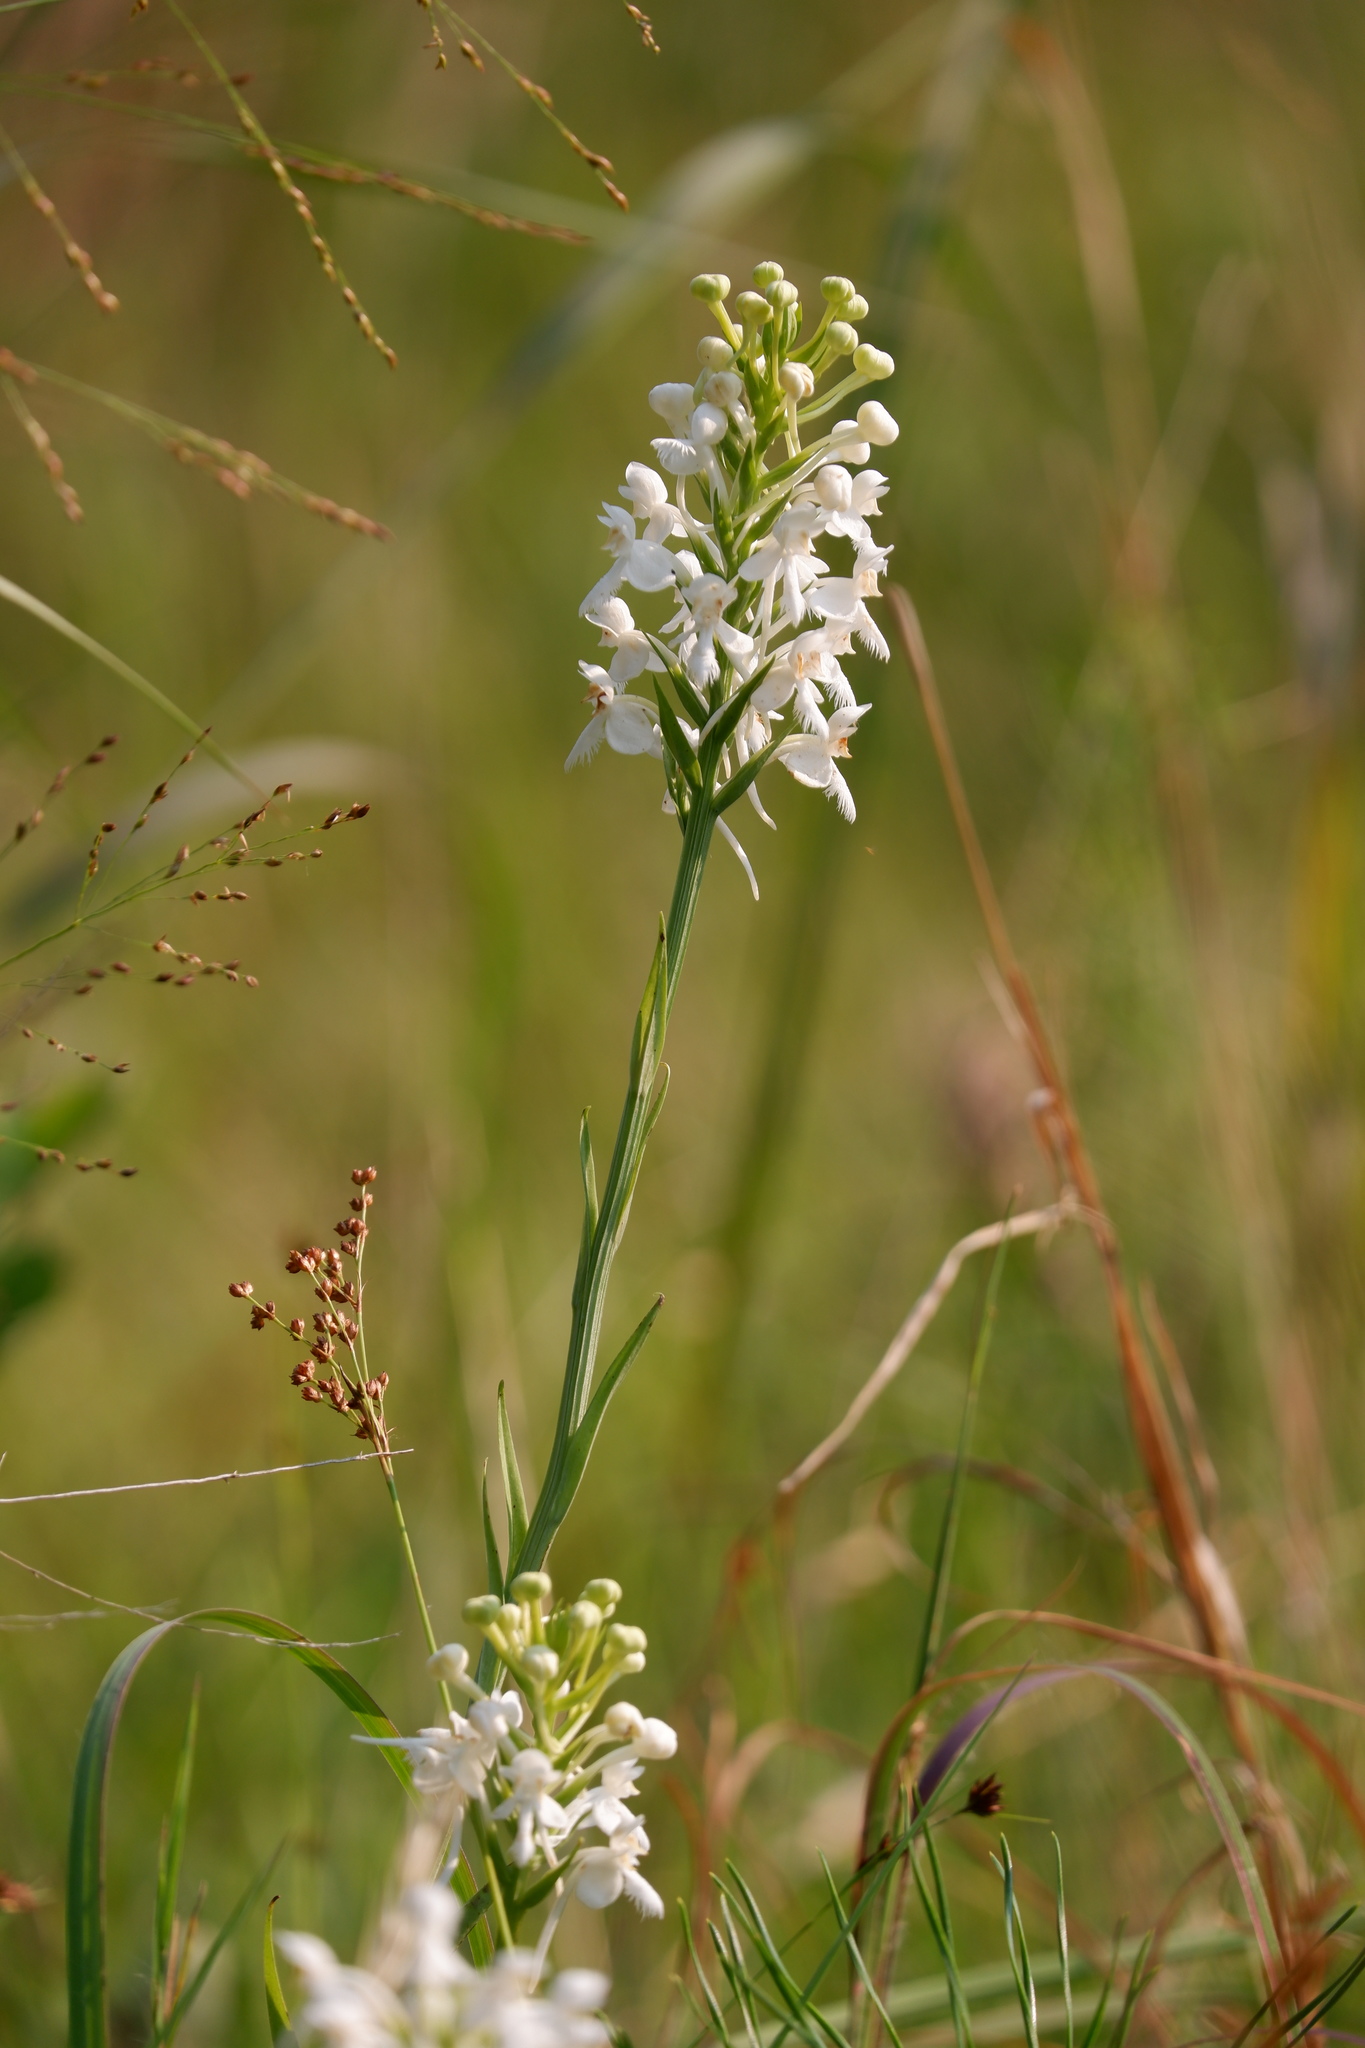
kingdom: Plantae
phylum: Tracheophyta
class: Liliopsida
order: Asparagales
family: Orchidaceae
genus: Platanthera
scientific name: Platanthera blephariglottis
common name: White fringed orchid
